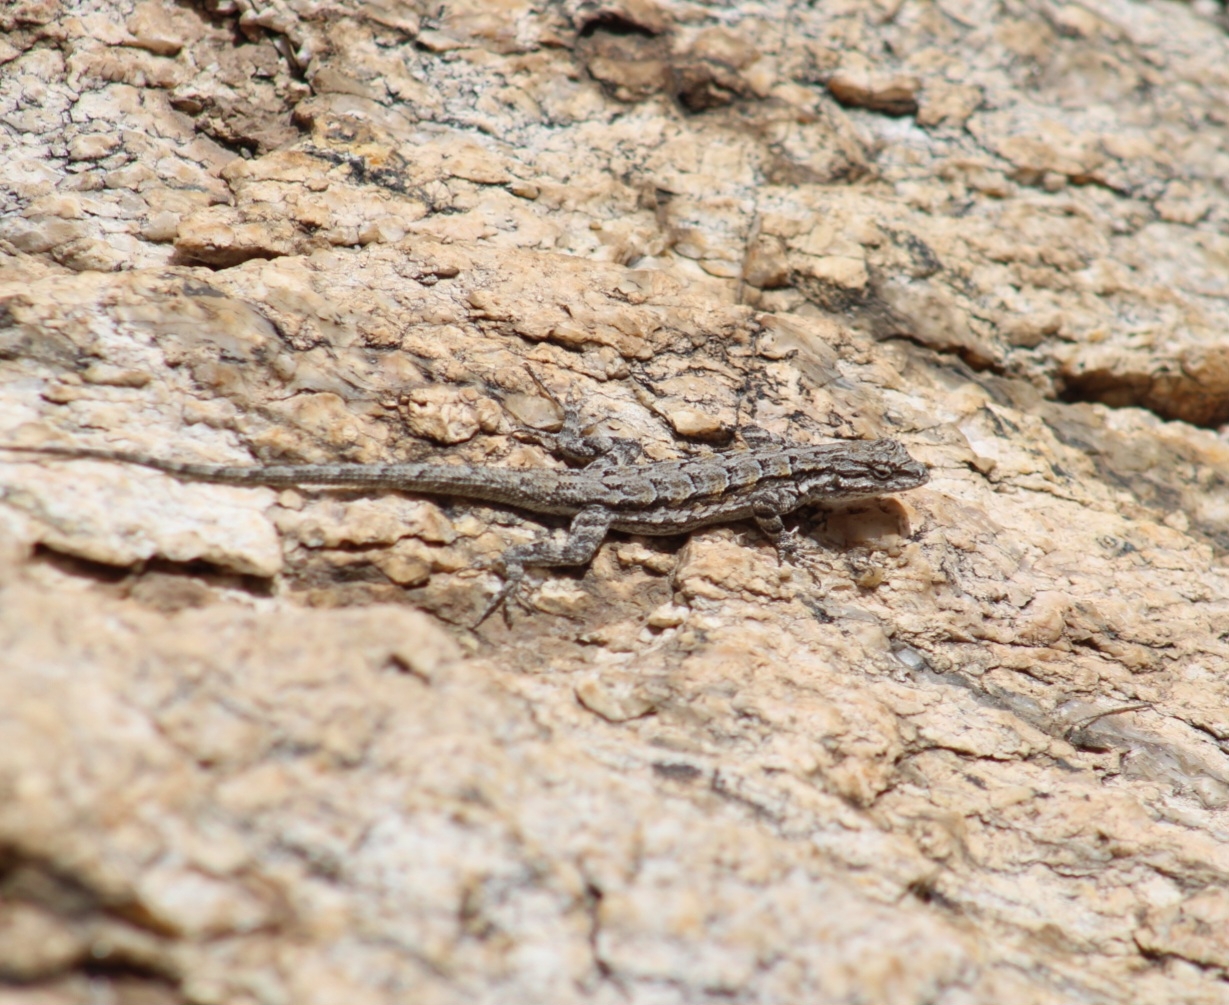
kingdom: Animalia
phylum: Chordata
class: Squamata
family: Phrynosomatidae
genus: Urosaurus
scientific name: Urosaurus ornatus
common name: Ornate tree lizard
